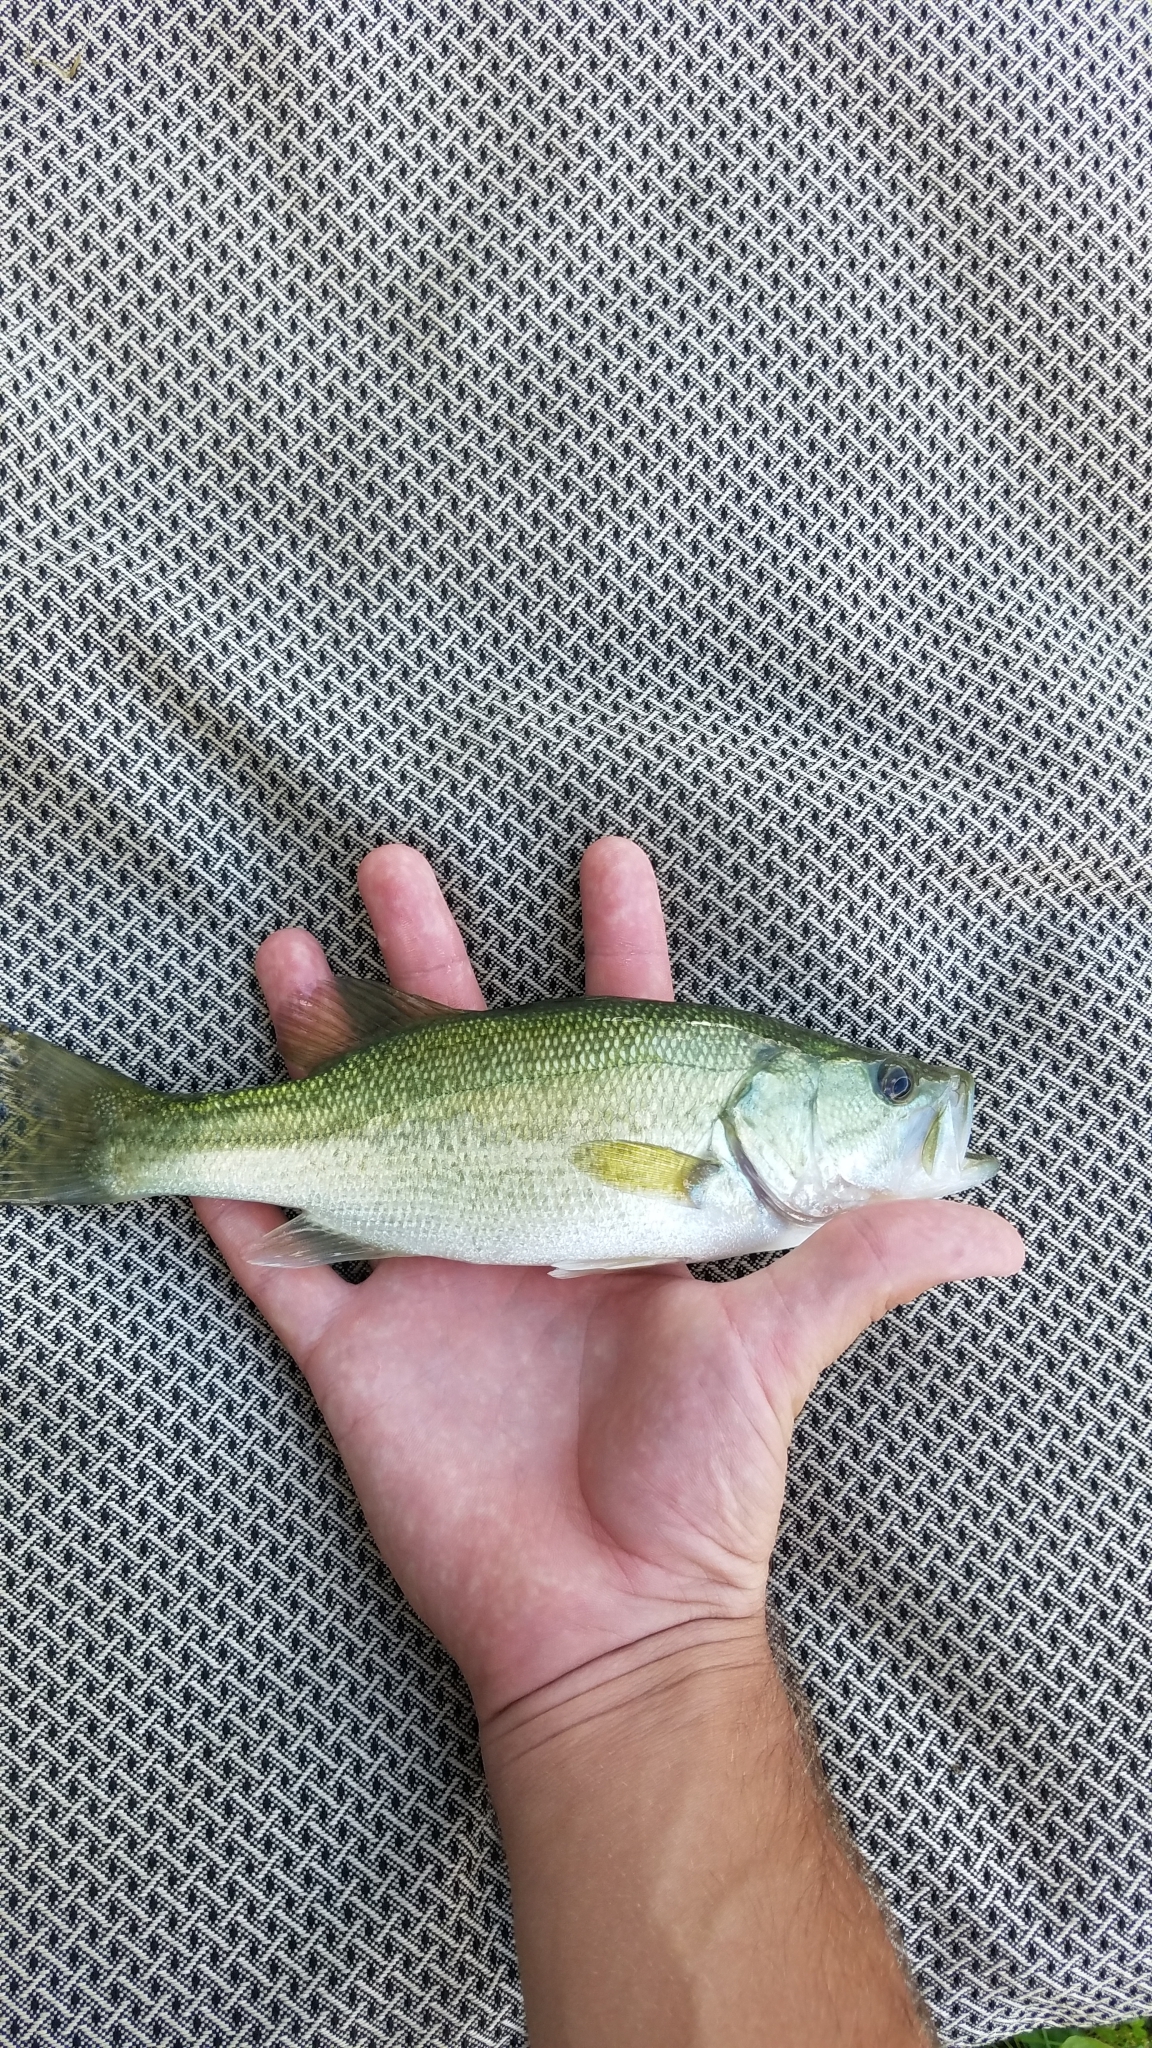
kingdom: Animalia
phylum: Chordata
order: Perciformes
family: Centrarchidae
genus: Micropterus
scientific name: Micropterus
